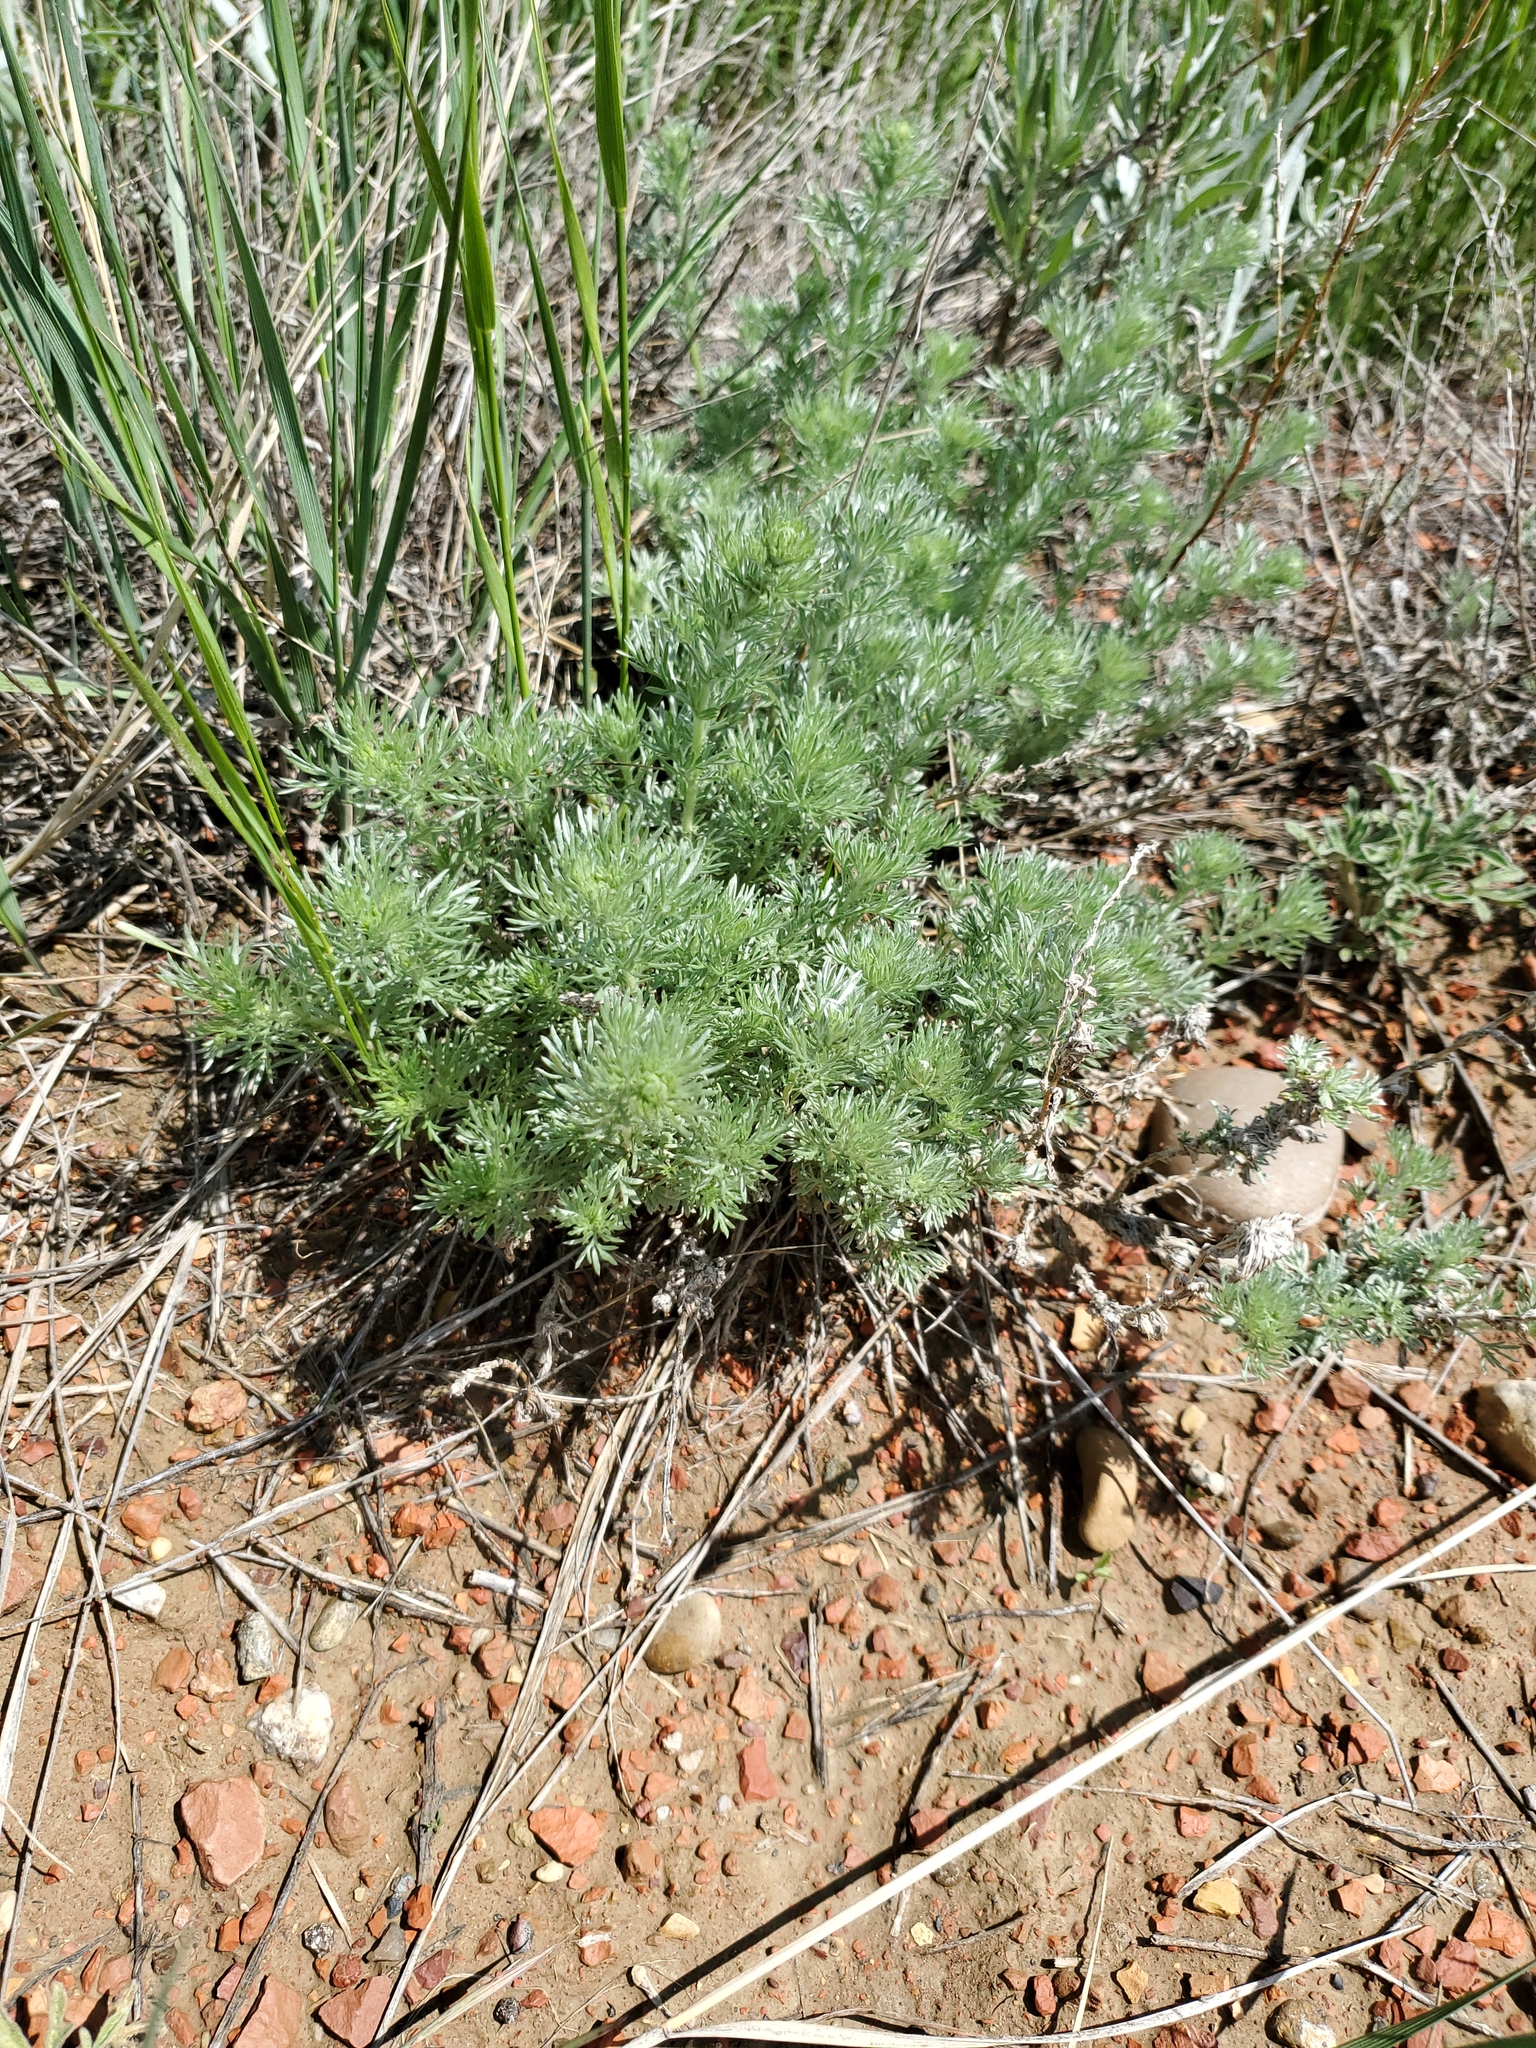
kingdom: Plantae
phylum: Tracheophyta
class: Magnoliopsida
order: Asterales
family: Asteraceae
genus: Artemisia
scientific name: Artemisia frigida
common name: Prairie sagewort
